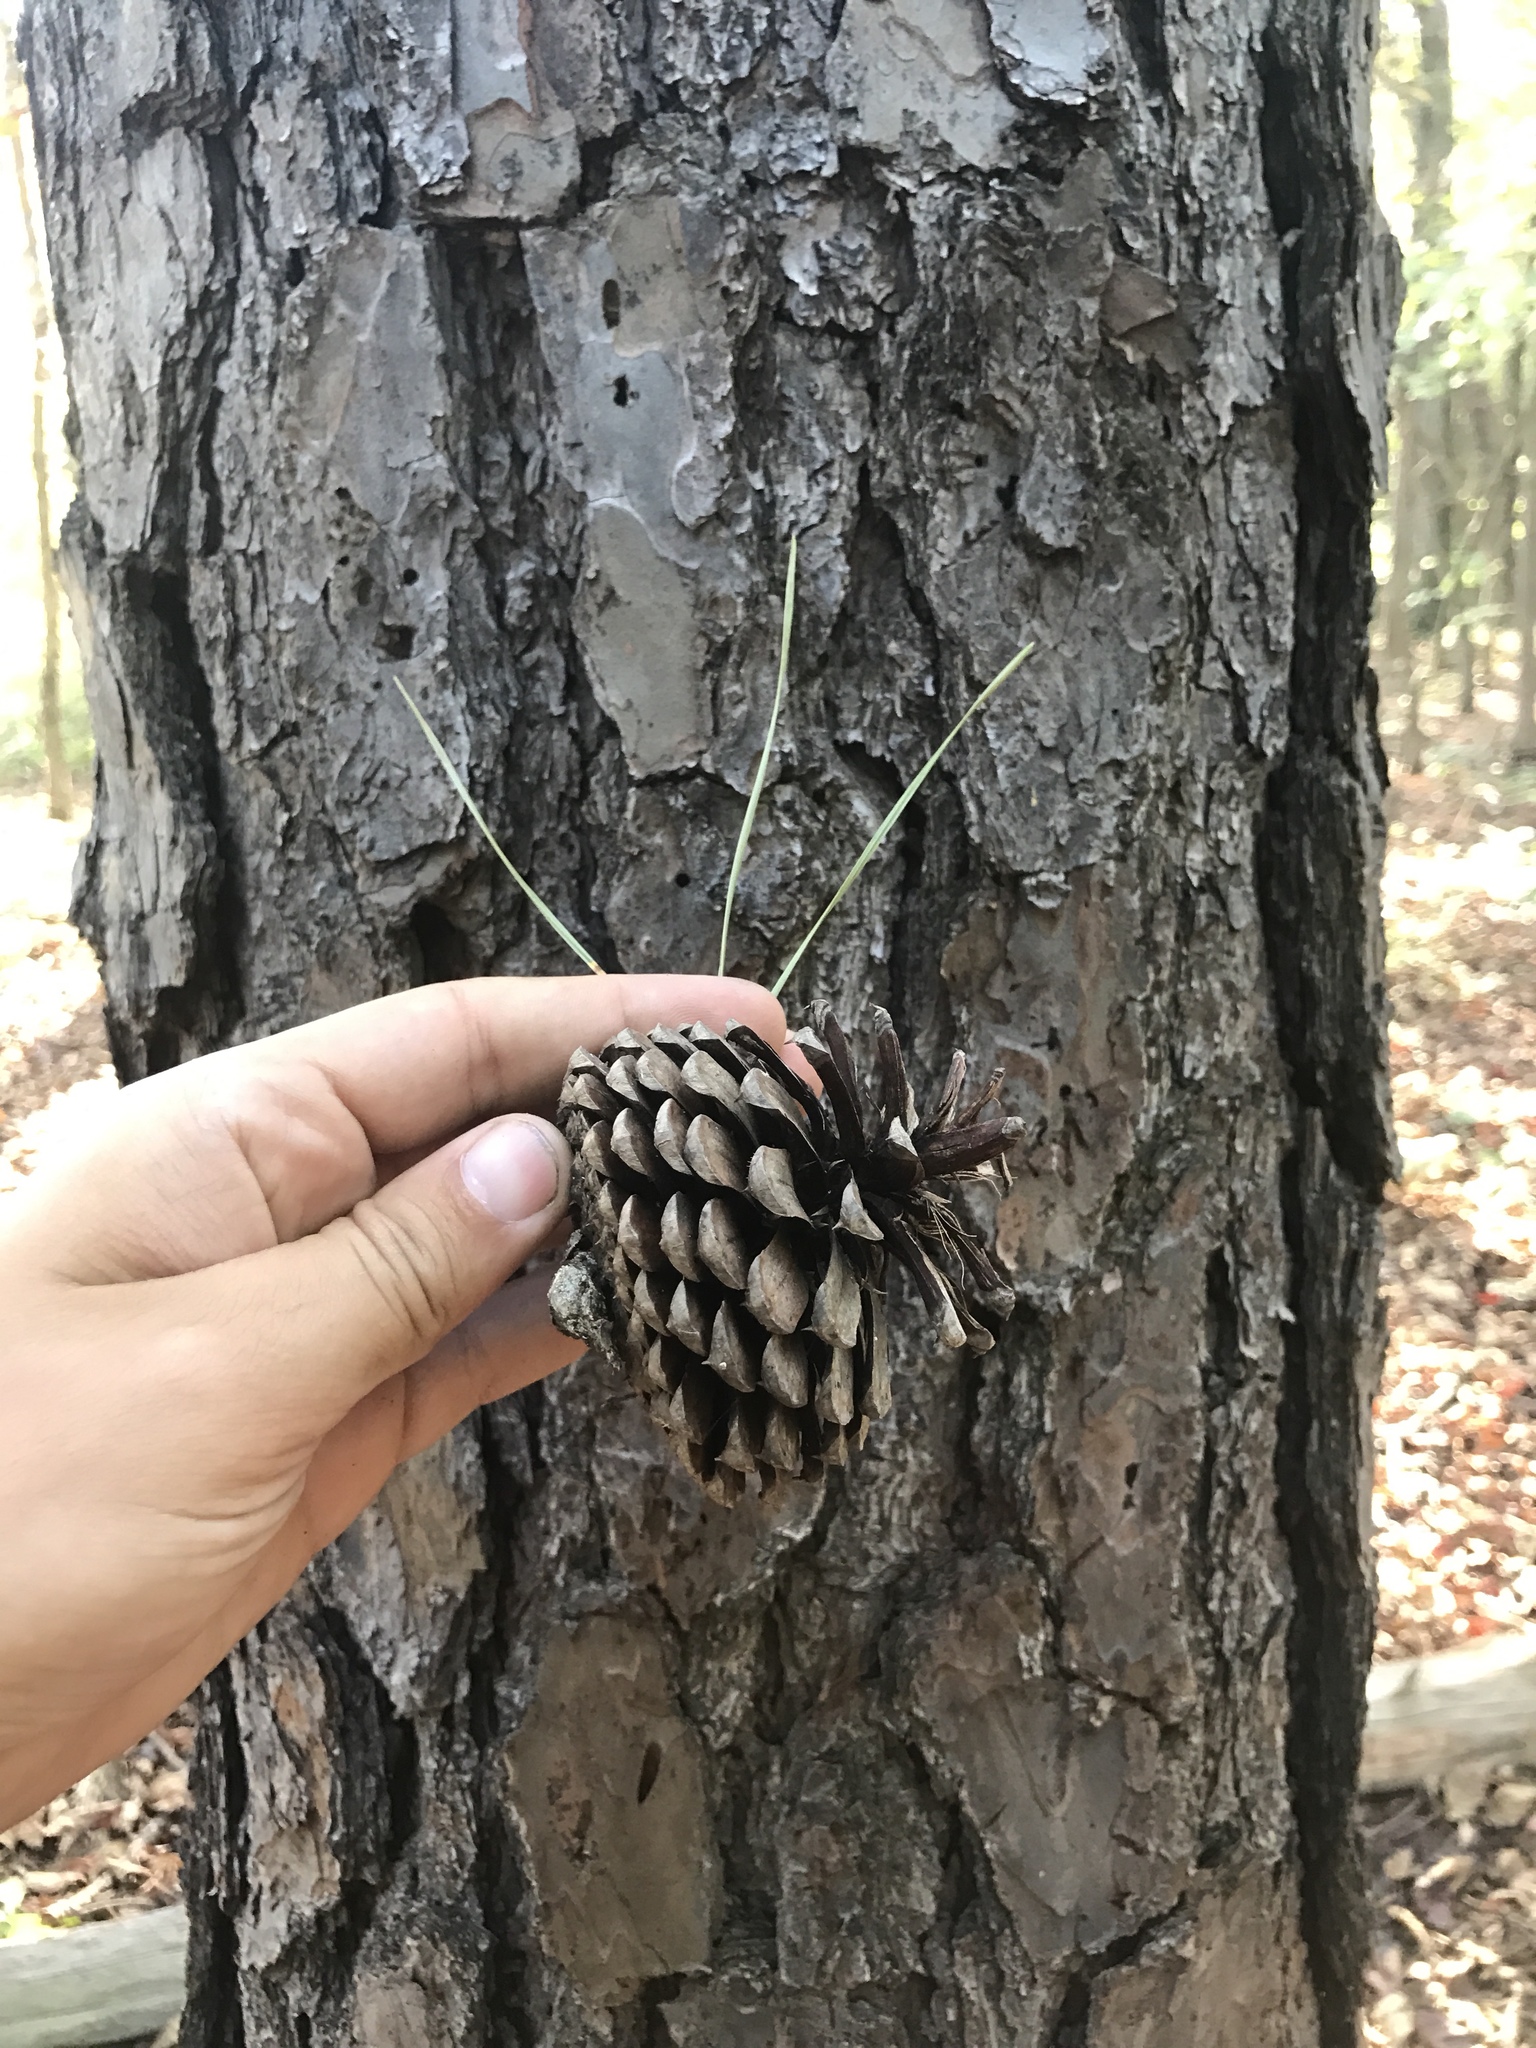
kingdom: Plantae
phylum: Tracheophyta
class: Pinopsida
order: Pinales
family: Pinaceae
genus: Pinus
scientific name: Pinus rigida
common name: Pitch pine
